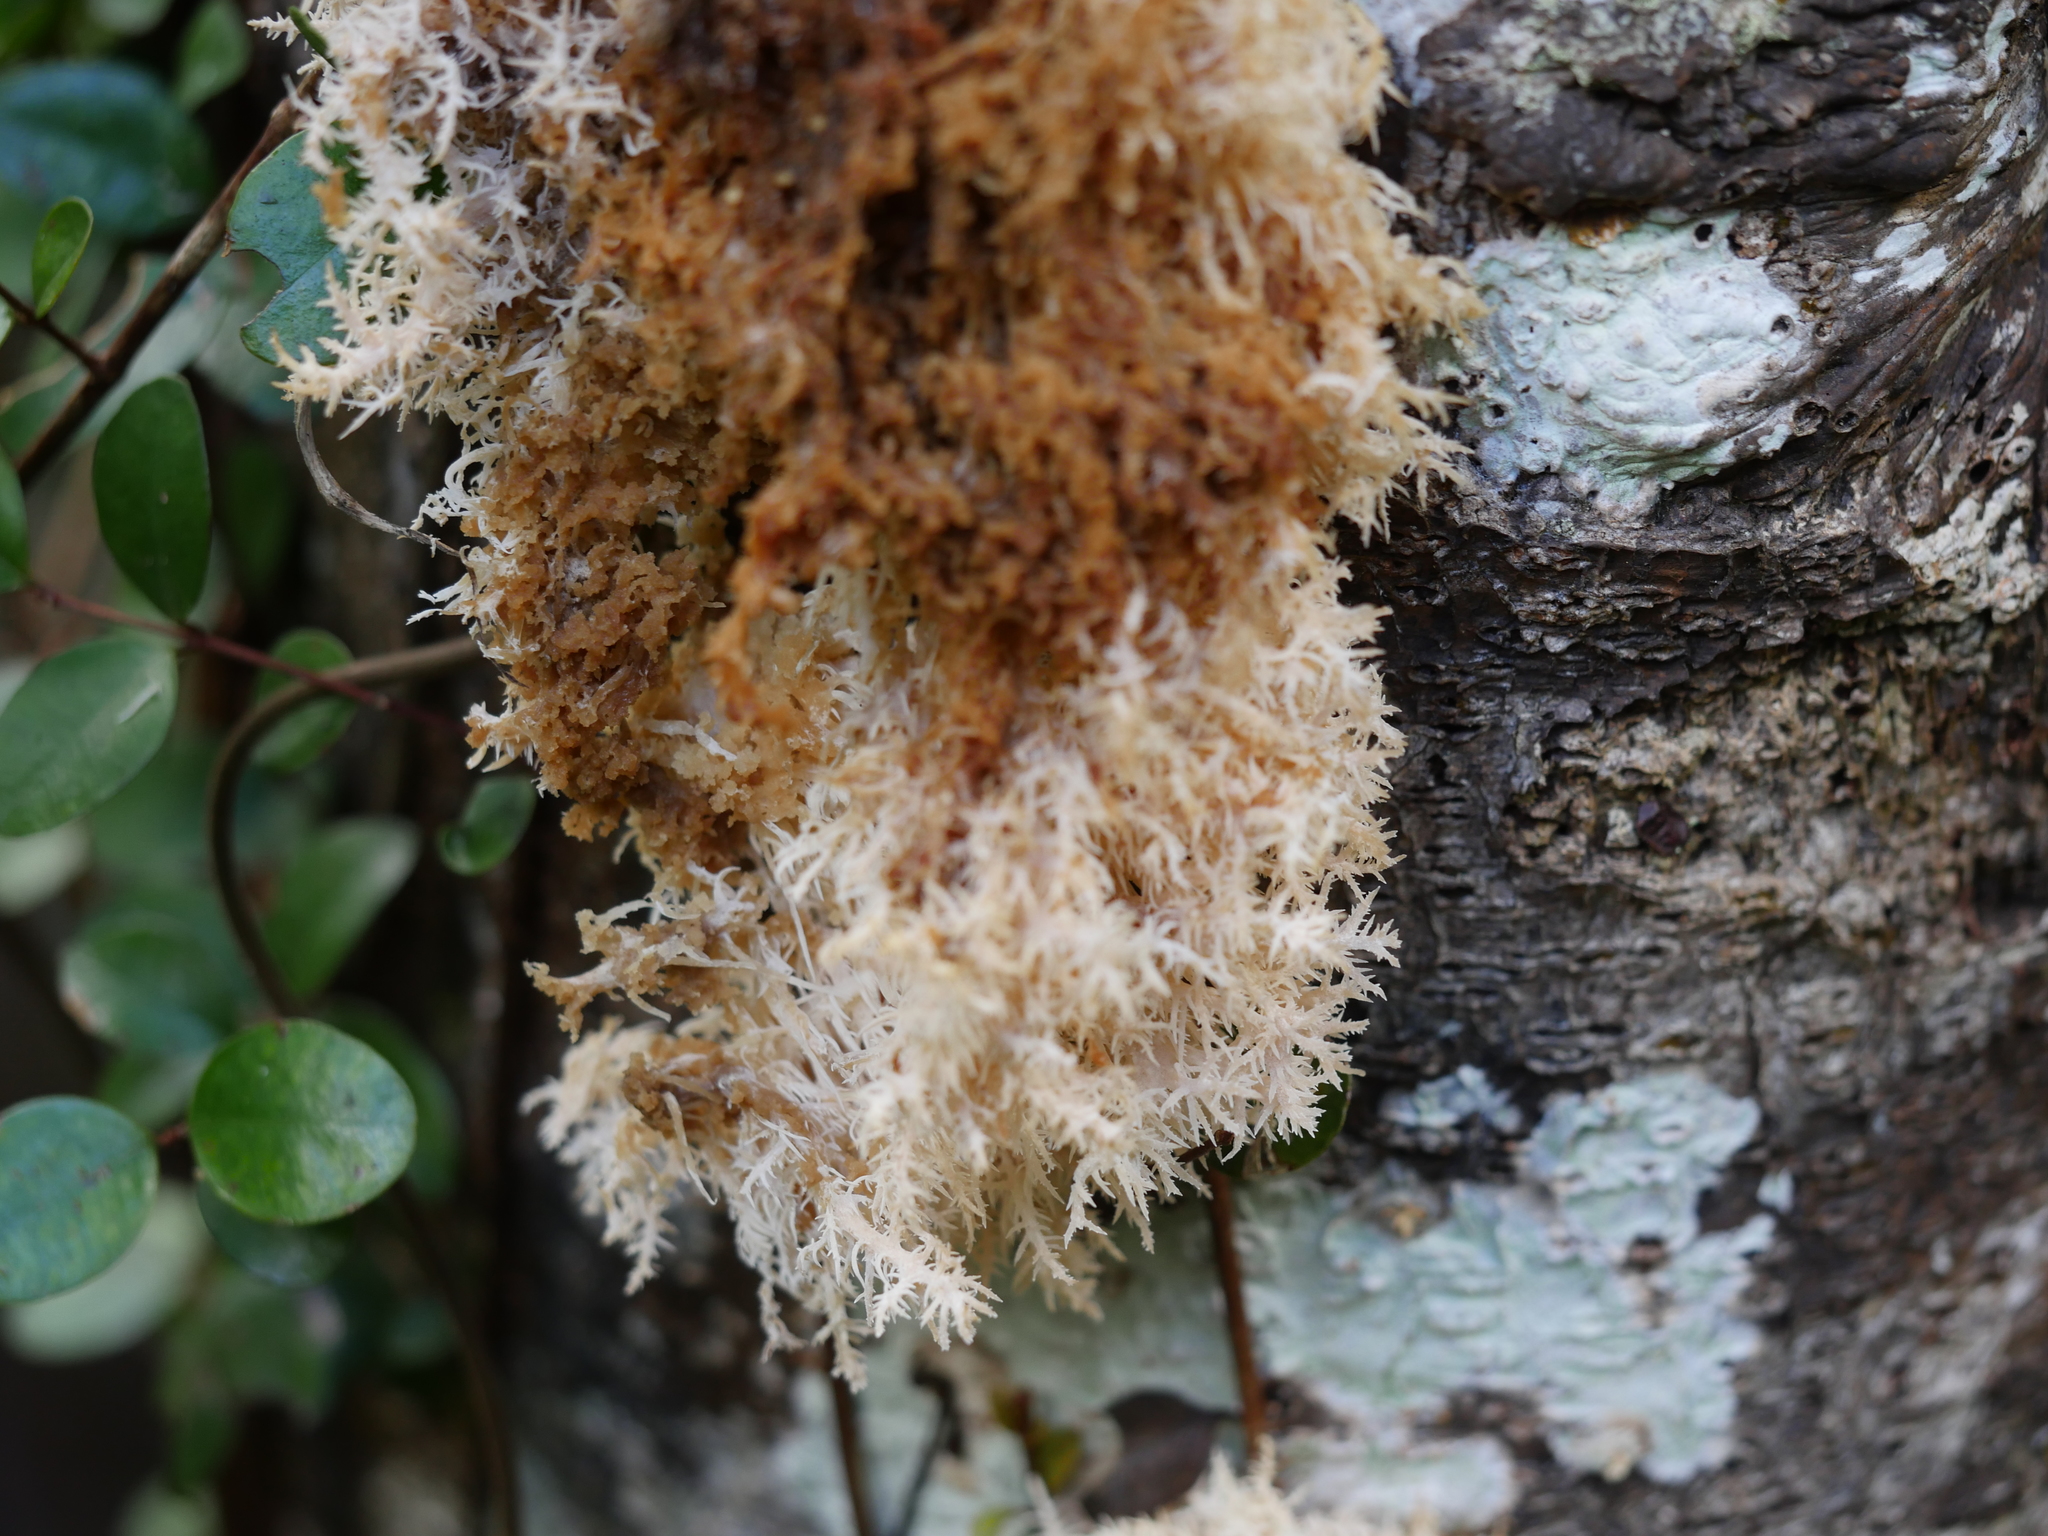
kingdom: Fungi
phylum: Basidiomycota
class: Agaricomycetes
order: Russulales
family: Hericiaceae
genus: Hericium
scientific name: Hericium novae-zealandiae
